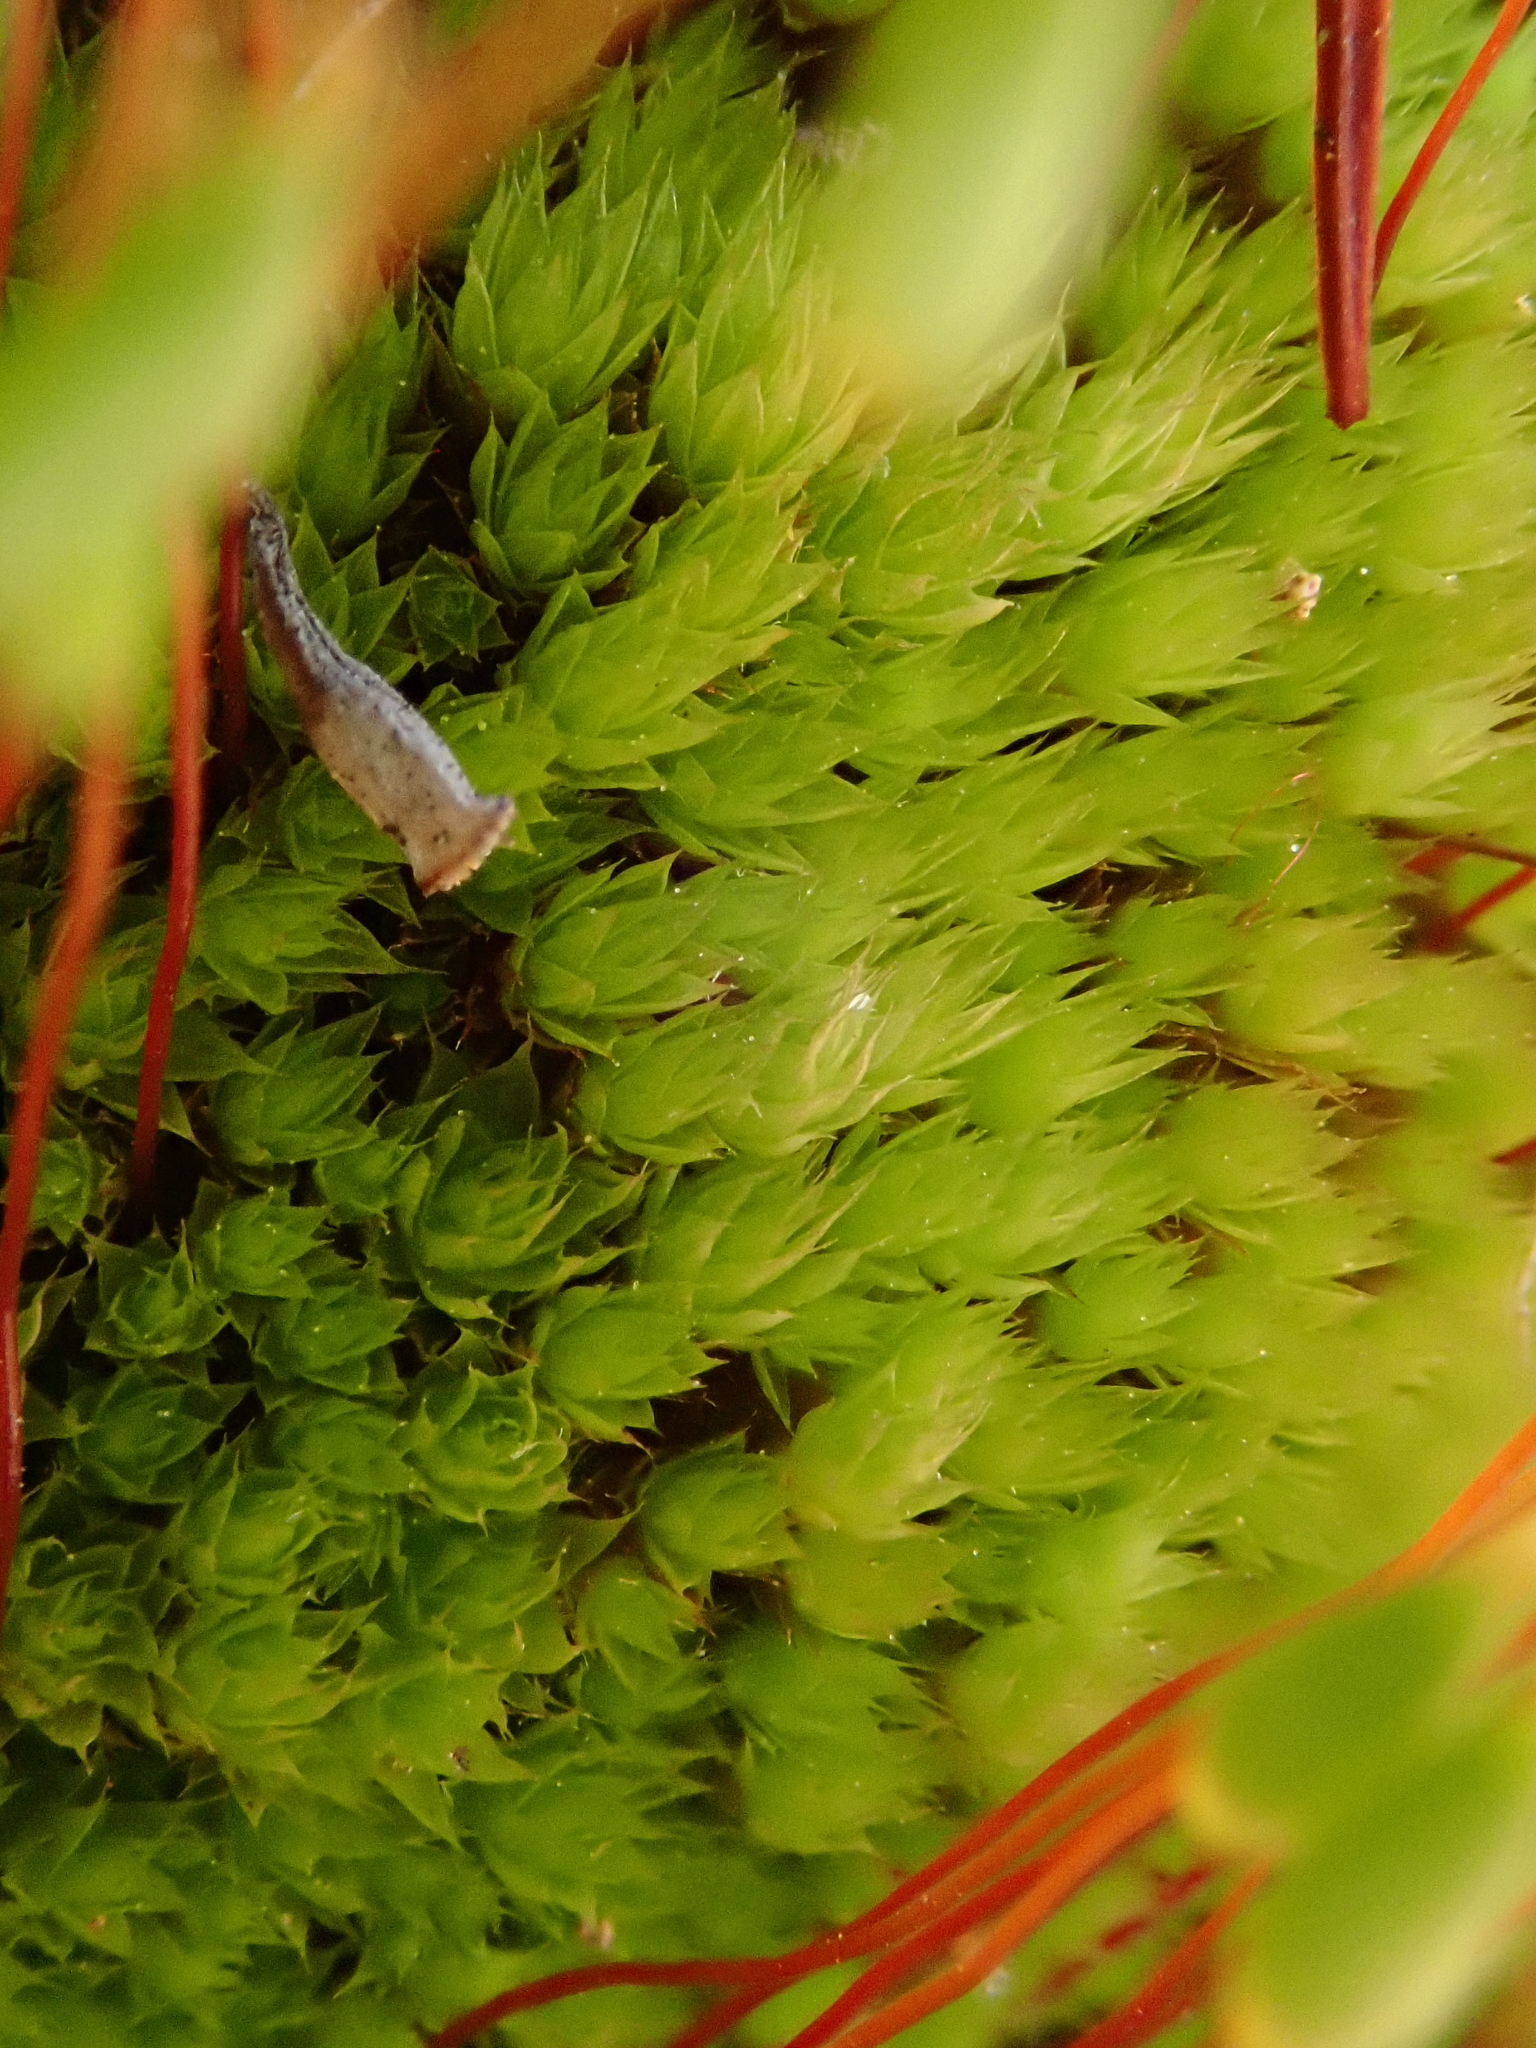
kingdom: Plantae
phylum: Bryophyta
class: Bryopsida
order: Bryales
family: Bryaceae
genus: Gemmabryum
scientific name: Gemmabryum caespiticium
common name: Handbell moss
